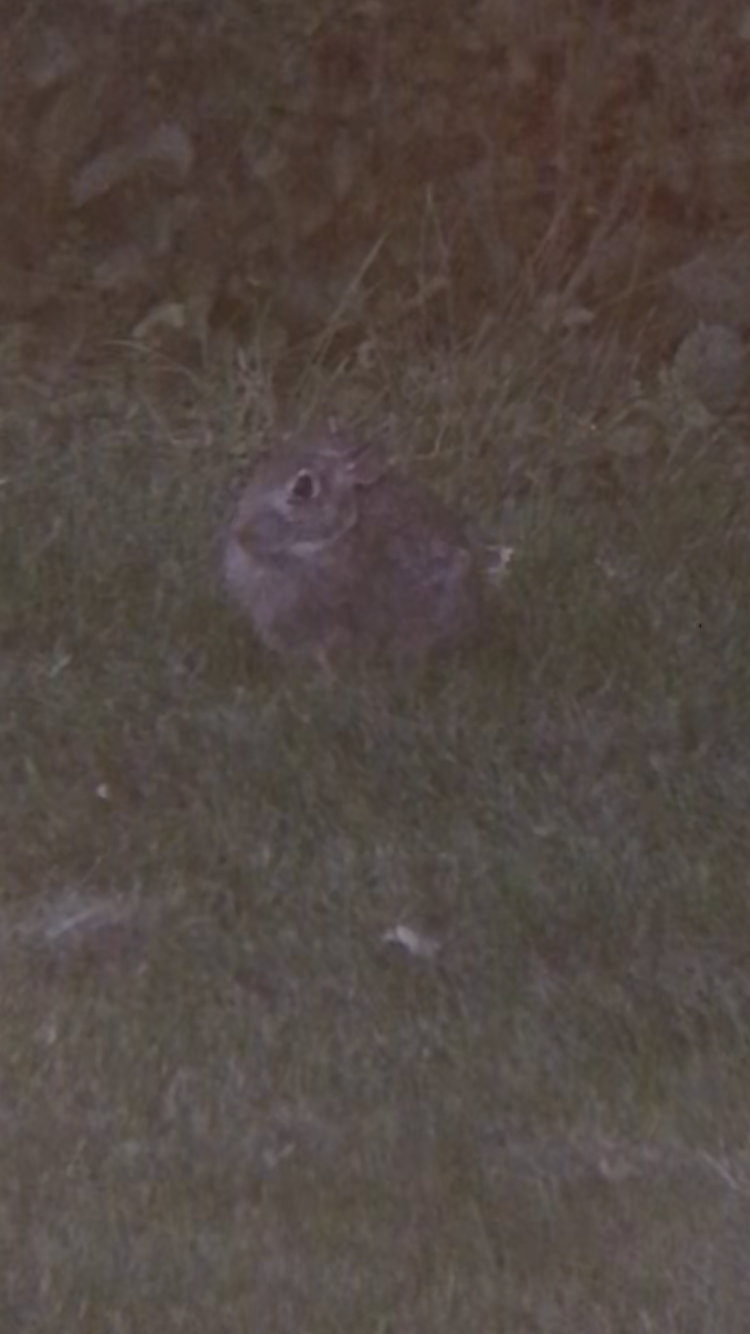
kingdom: Animalia
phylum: Chordata
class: Mammalia
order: Lagomorpha
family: Leporidae
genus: Sylvilagus
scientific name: Sylvilagus floridanus
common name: Eastern cottontail
